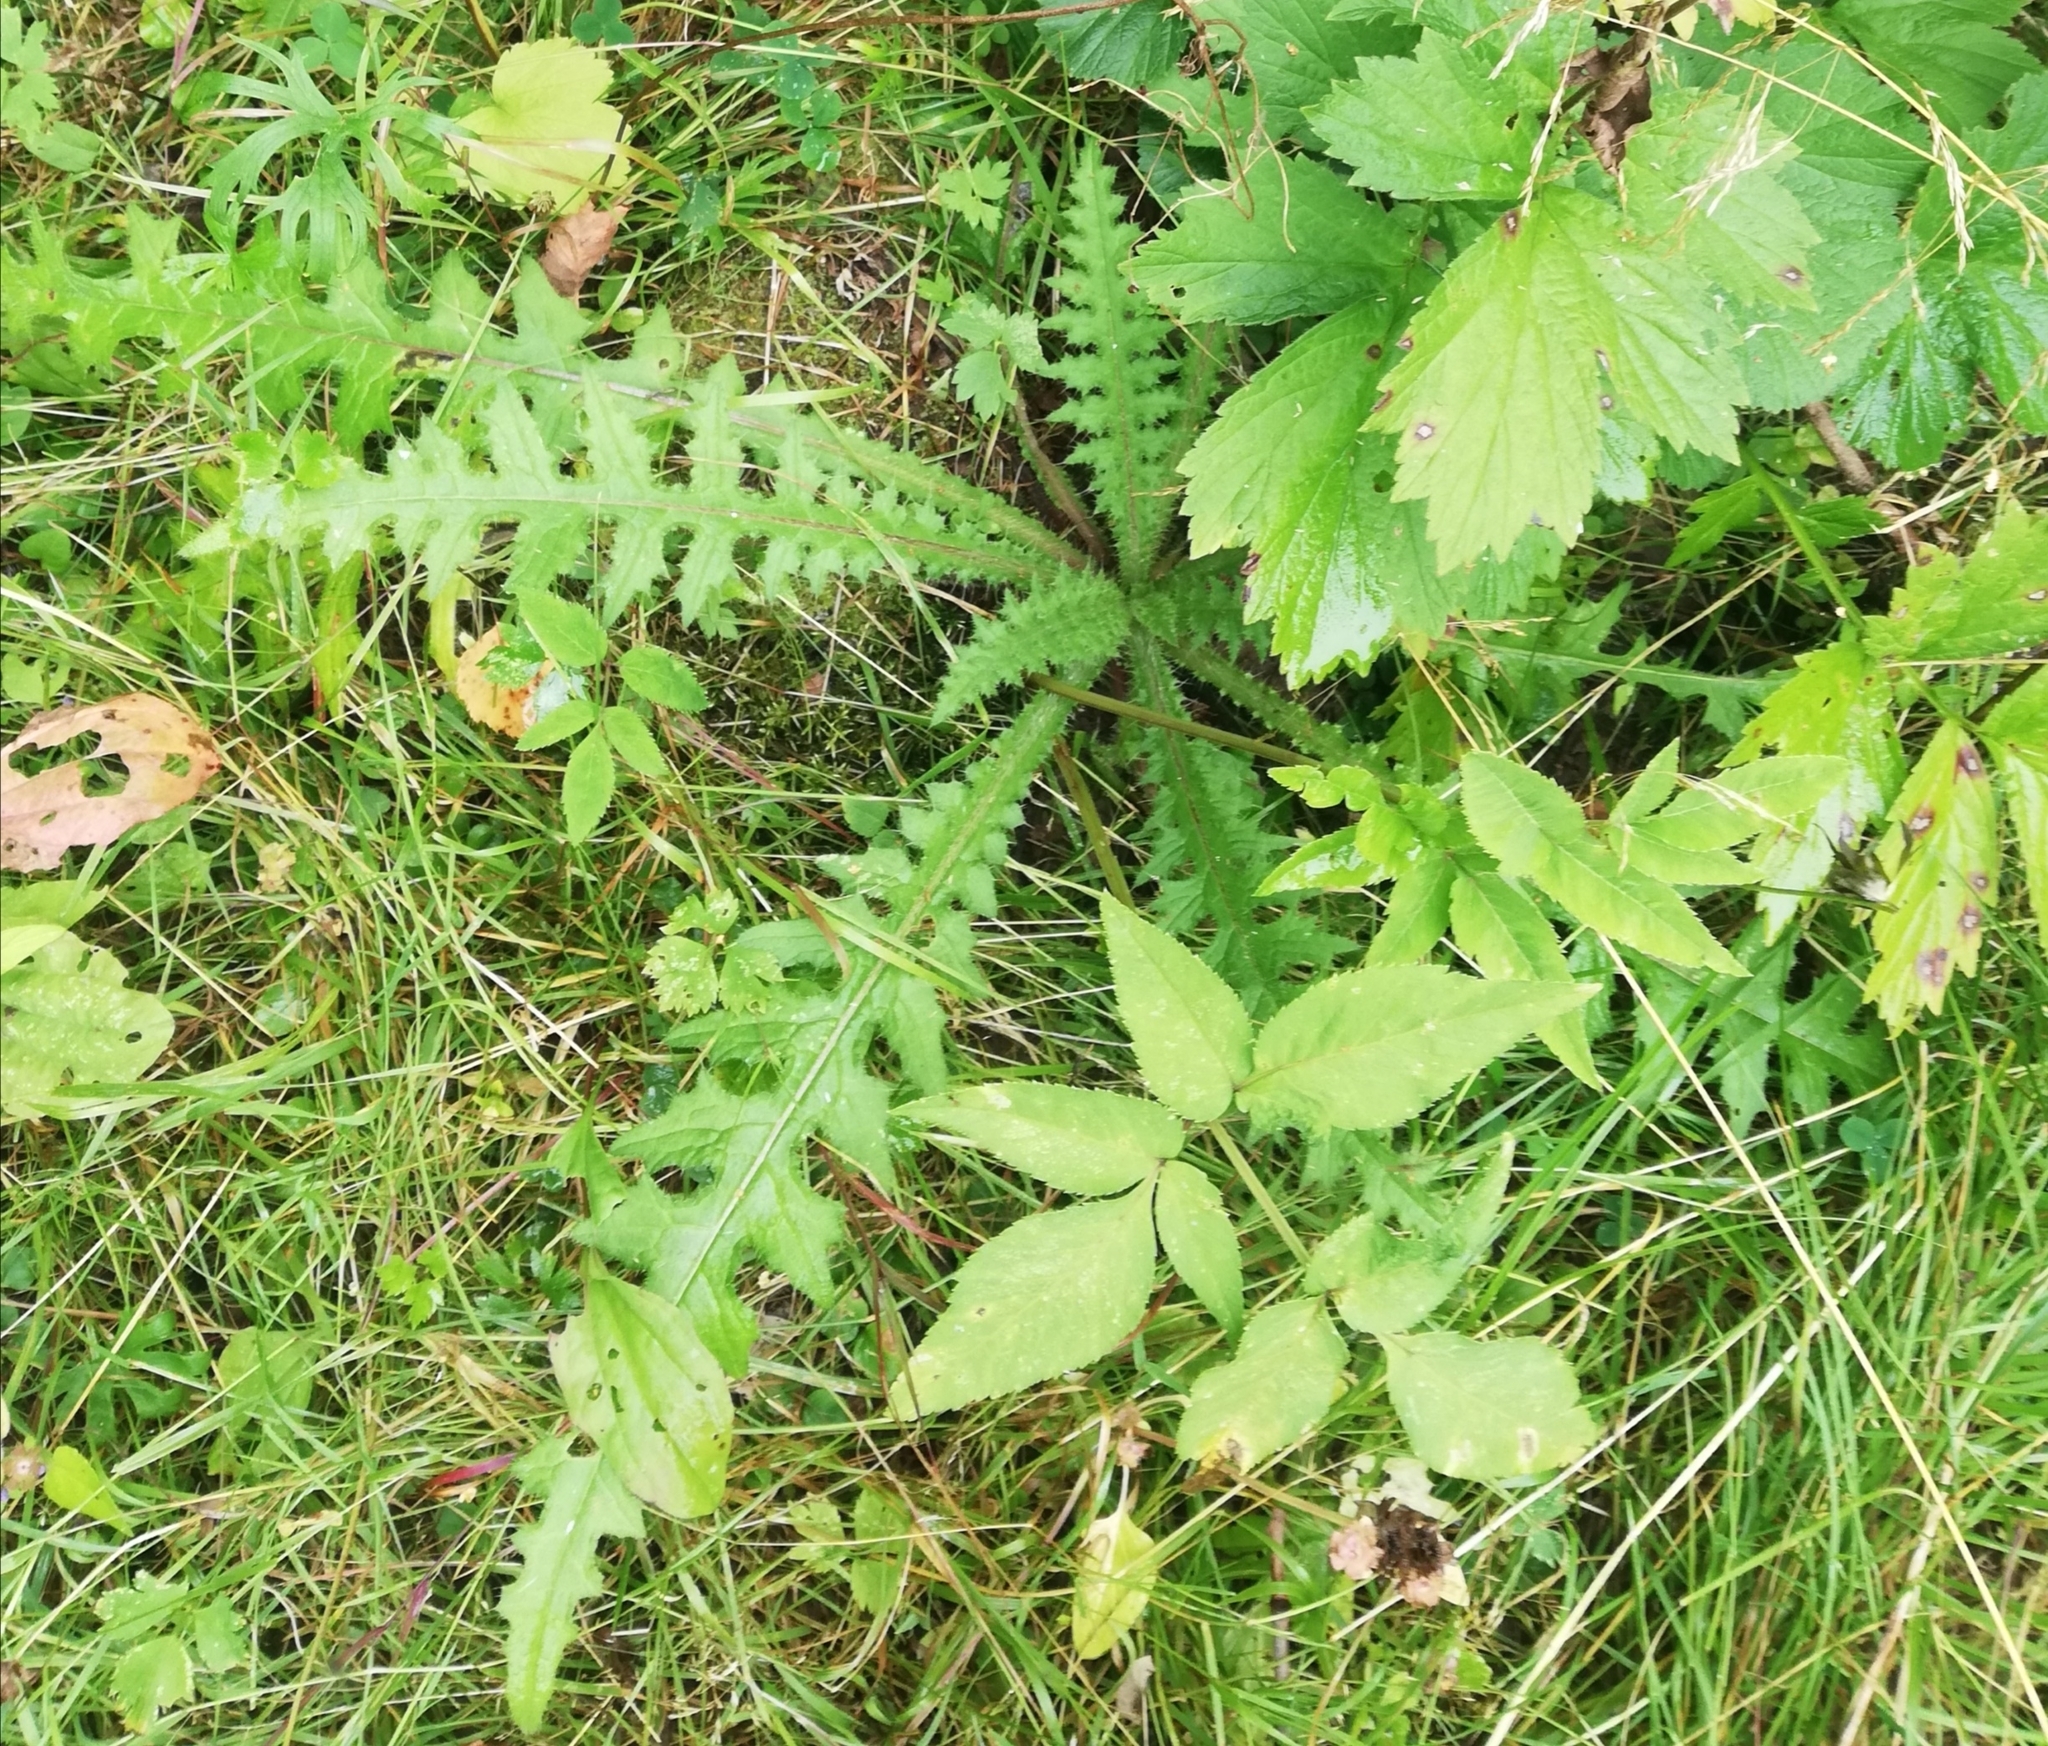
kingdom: Plantae
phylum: Tracheophyta
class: Magnoliopsida
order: Asterales
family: Asteraceae
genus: Cirsium
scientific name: Cirsium palustre
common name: Marsh thistle
